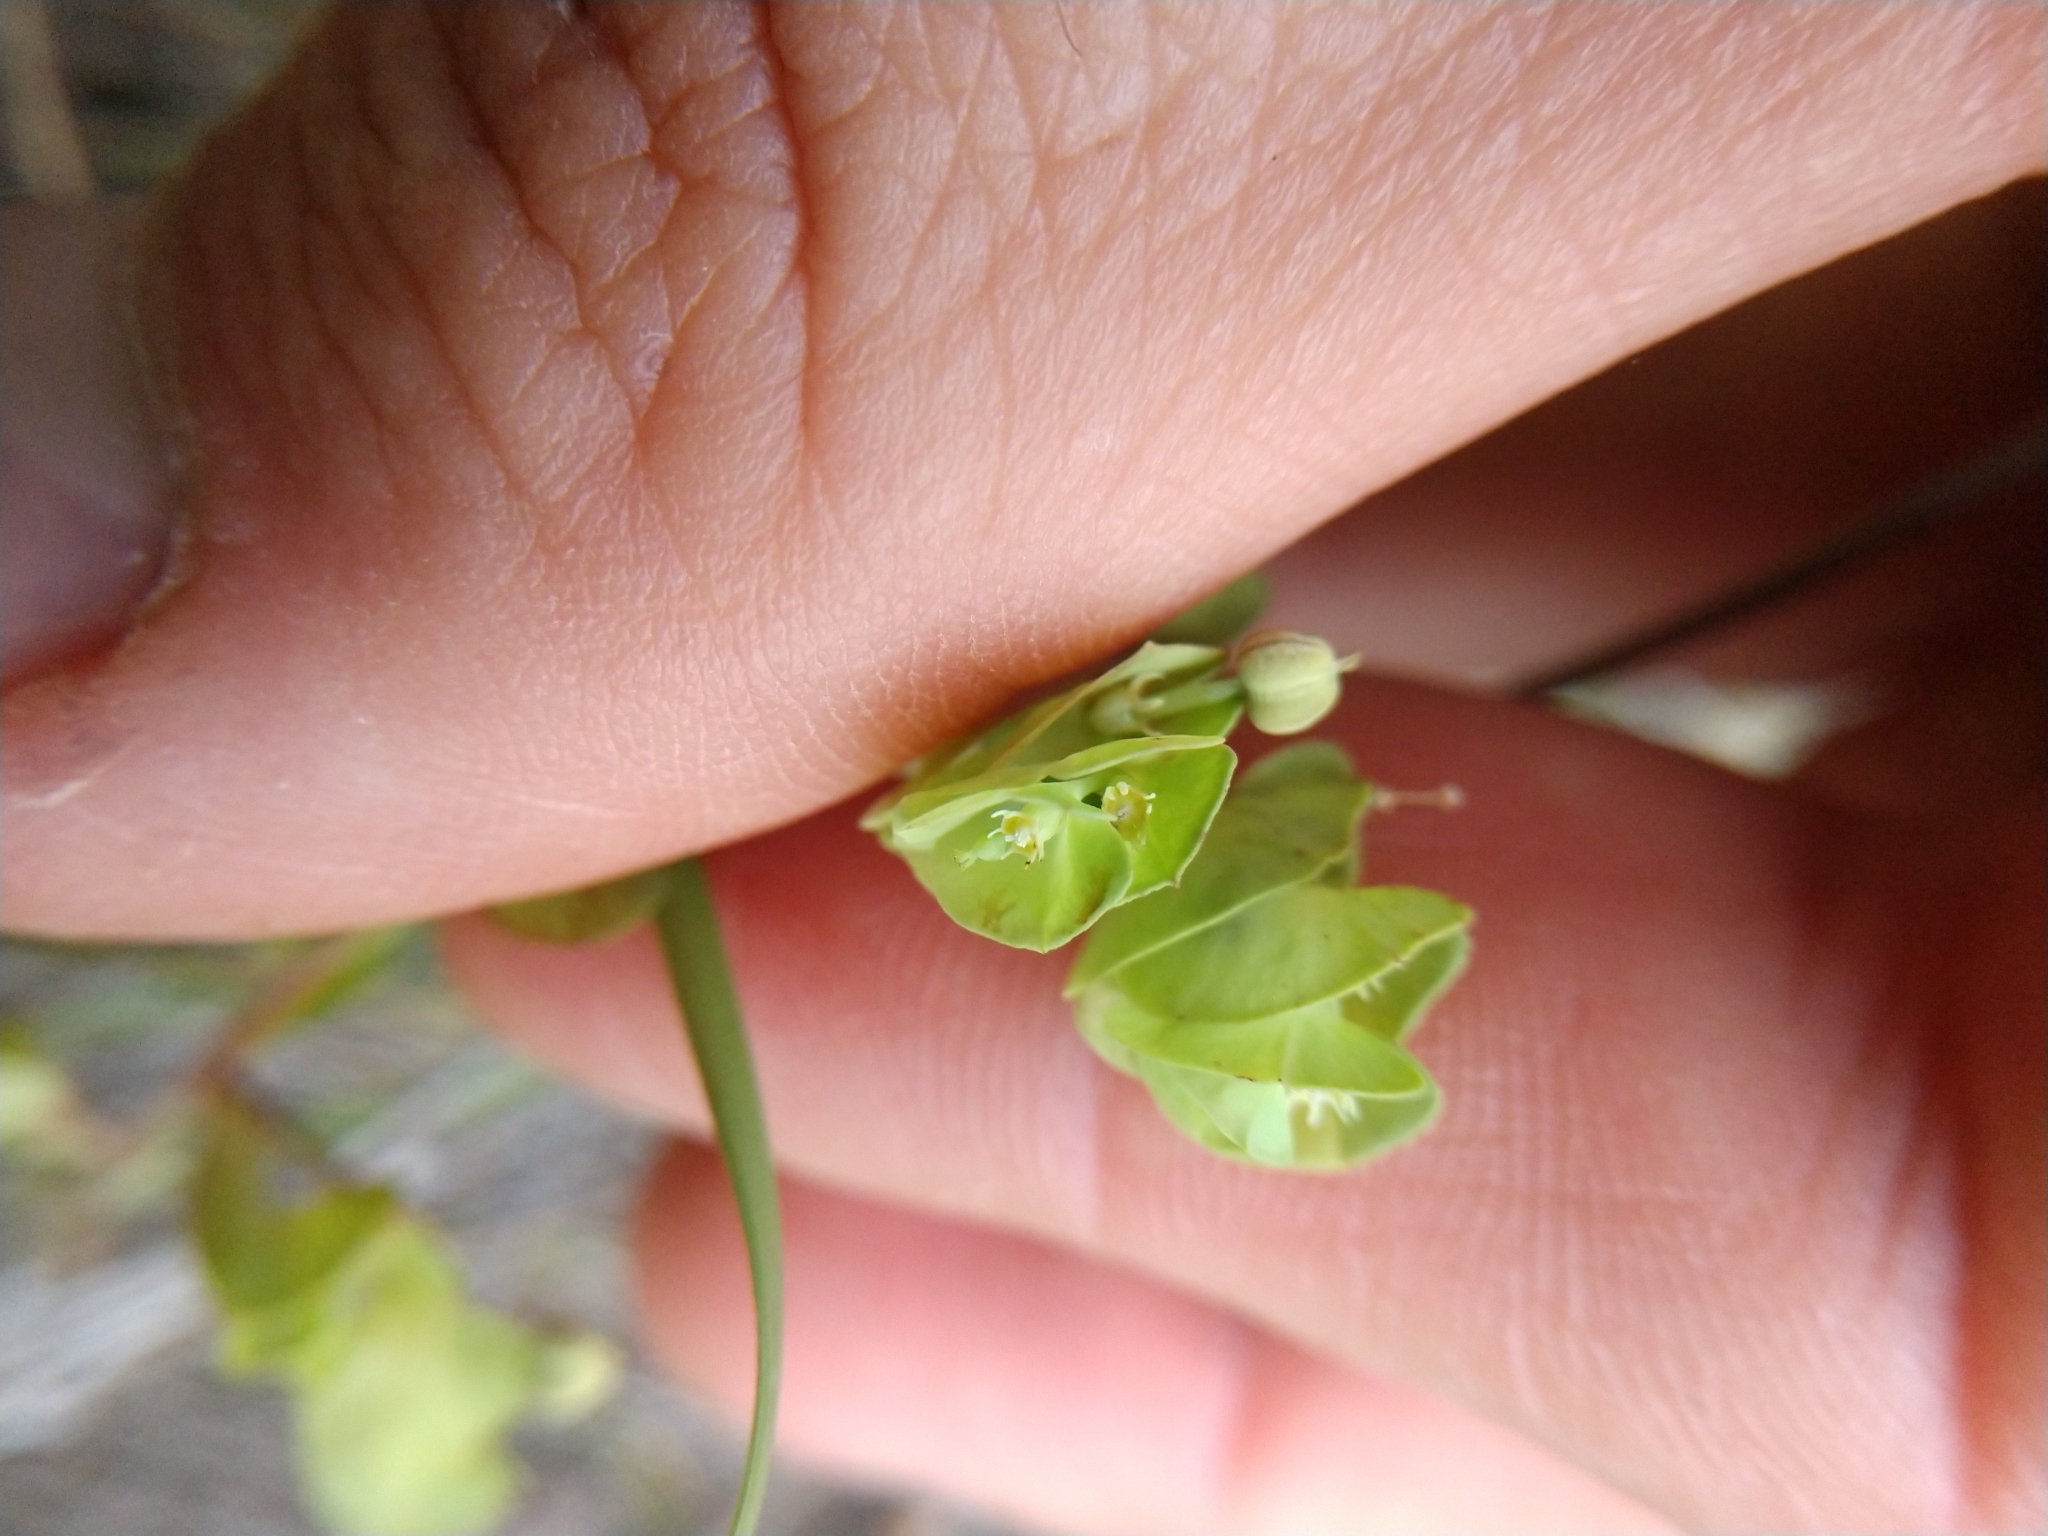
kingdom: Plantae
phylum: Tracheophyta
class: Magnoliopsida
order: Malpighiales
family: Euphorbiaceae
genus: Euphorbia
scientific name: Euphorbia longicruris
